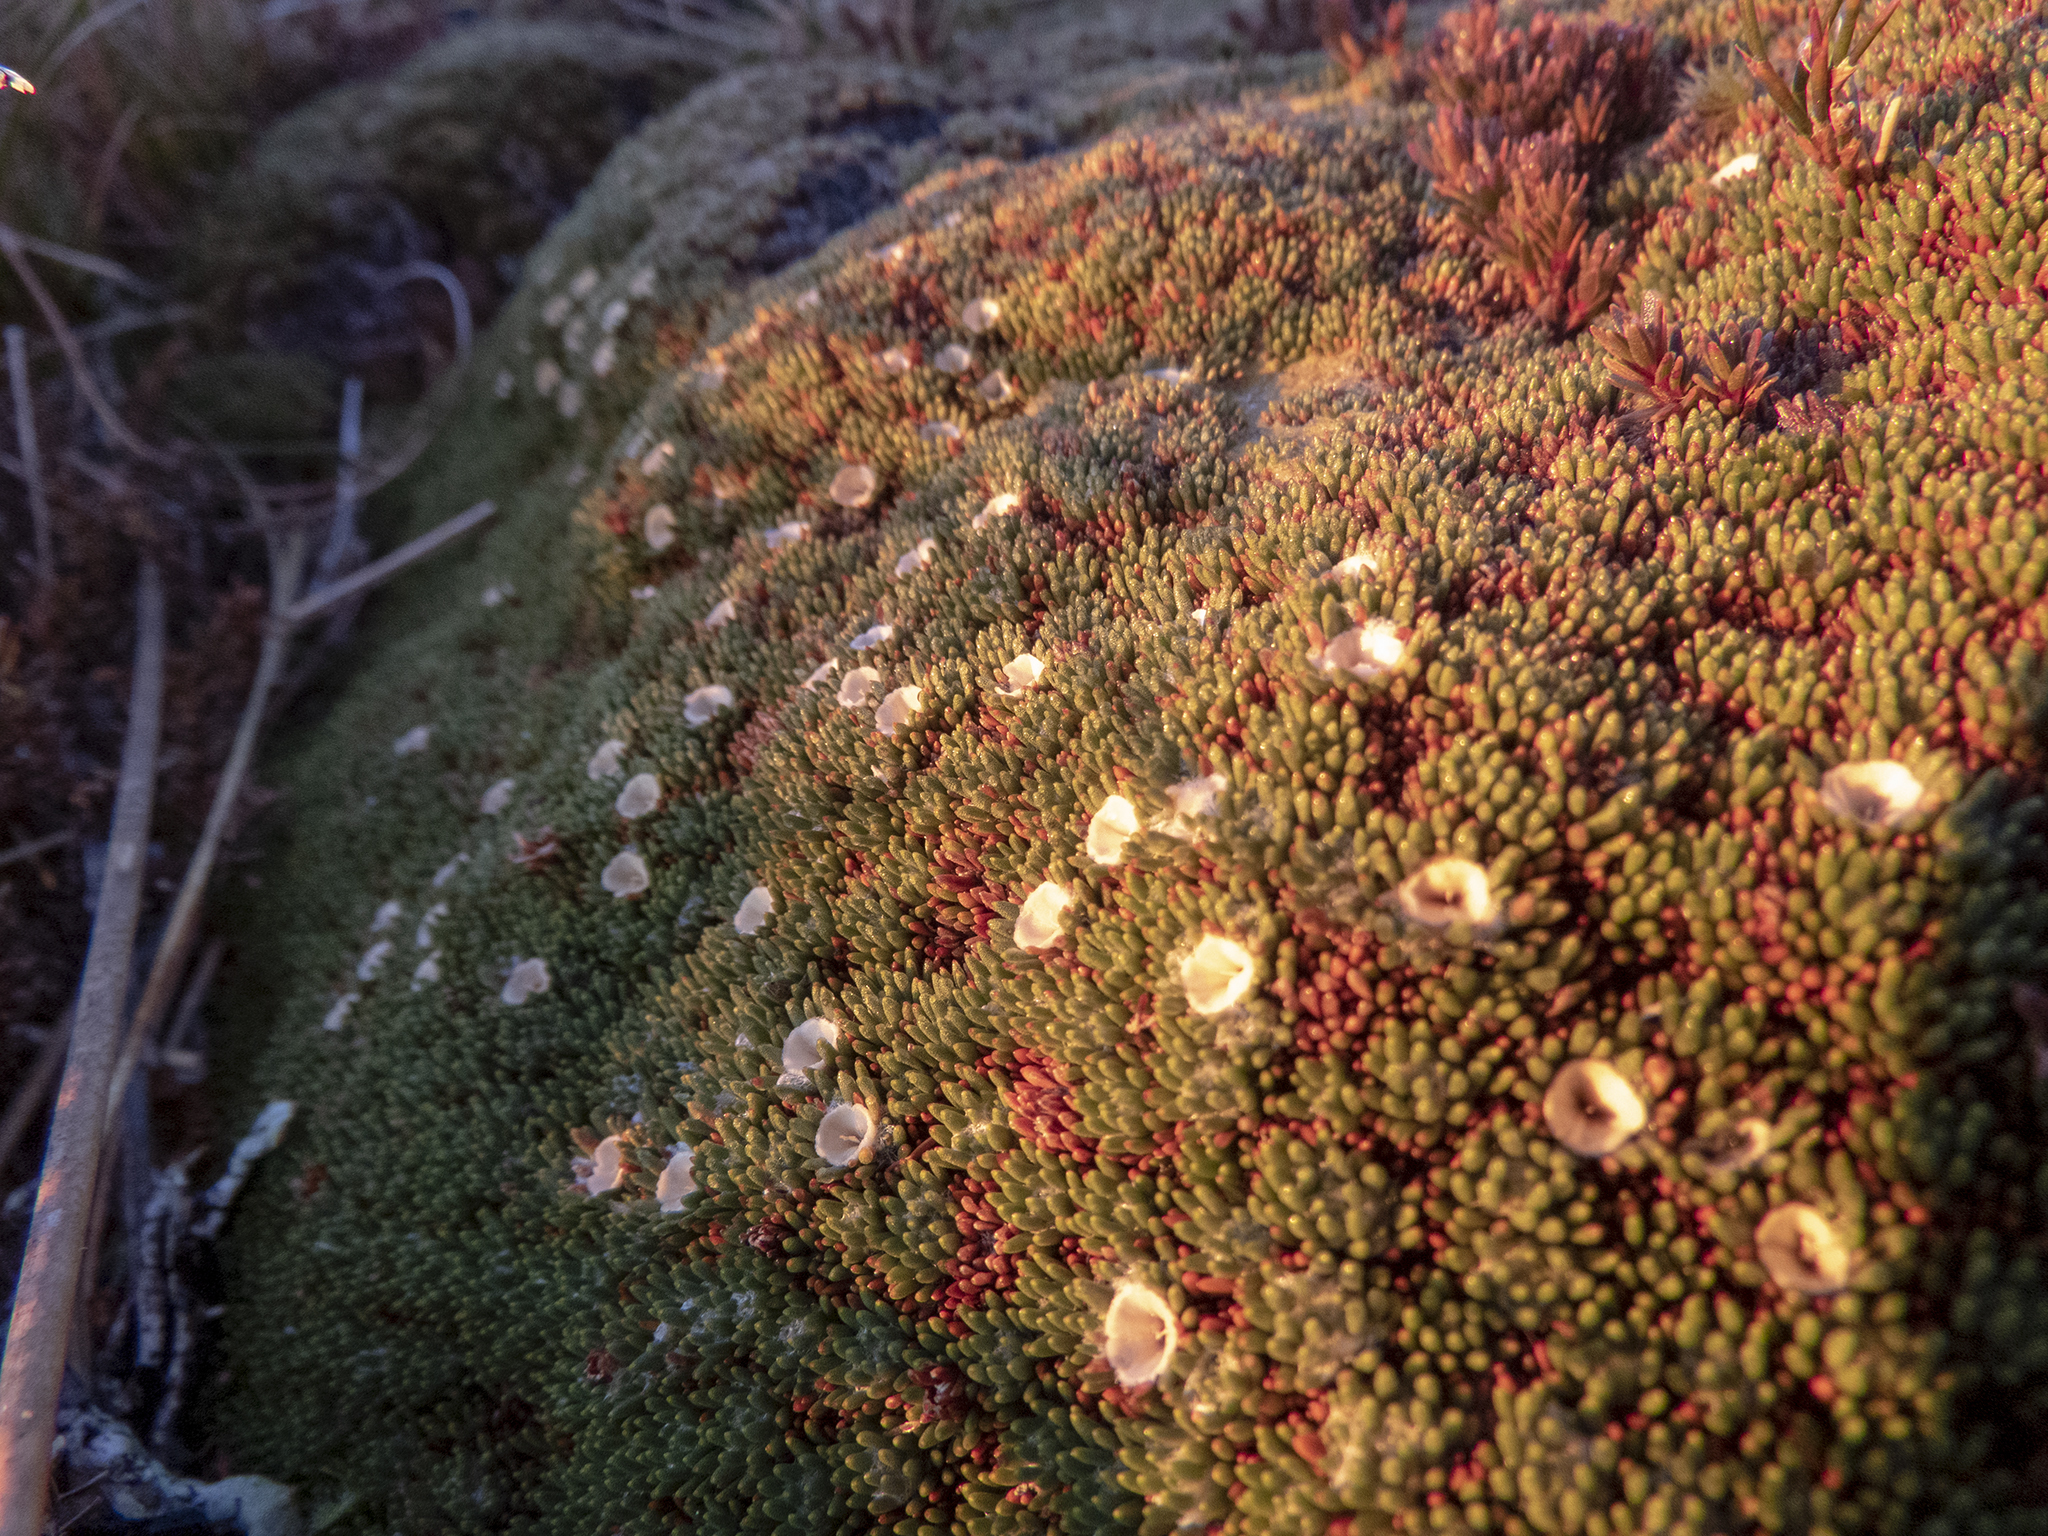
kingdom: Plantae
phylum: Tracheophyta
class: Magnoliopsida
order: Asterales
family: Stylidiaceae
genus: Donatia
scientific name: Donatia novae-zelandiae
